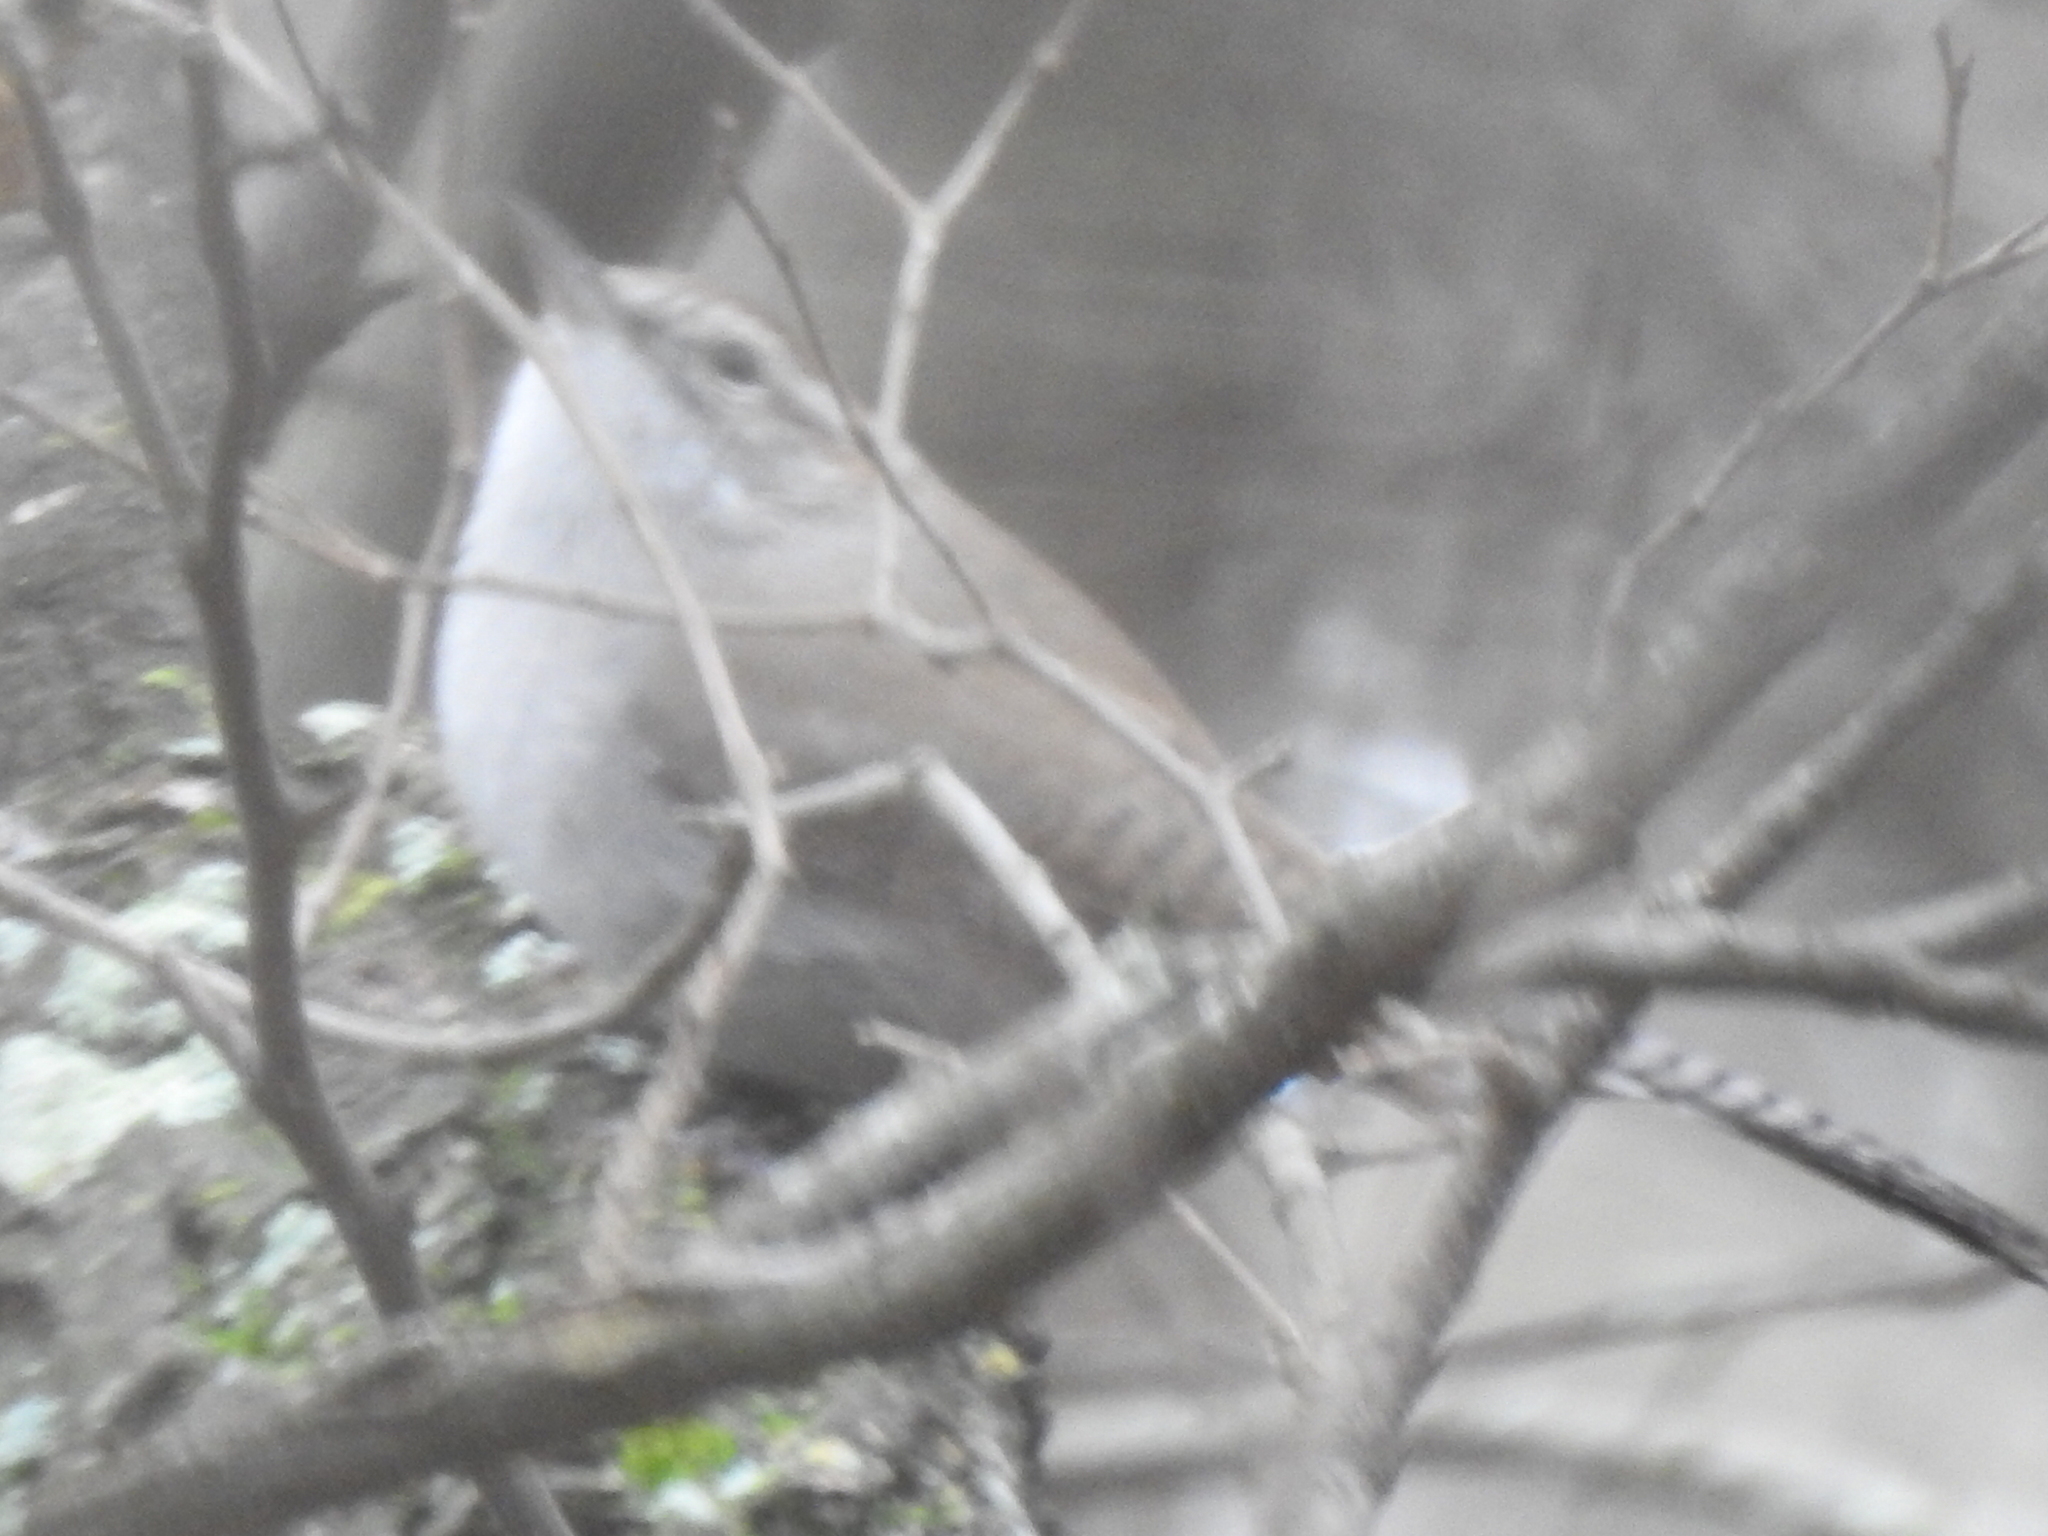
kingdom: Animalia
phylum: Chordata
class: Aves
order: Passeriformes
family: Troglodytidae
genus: Troglodytes
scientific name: Troglodytes aedon
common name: House wren
